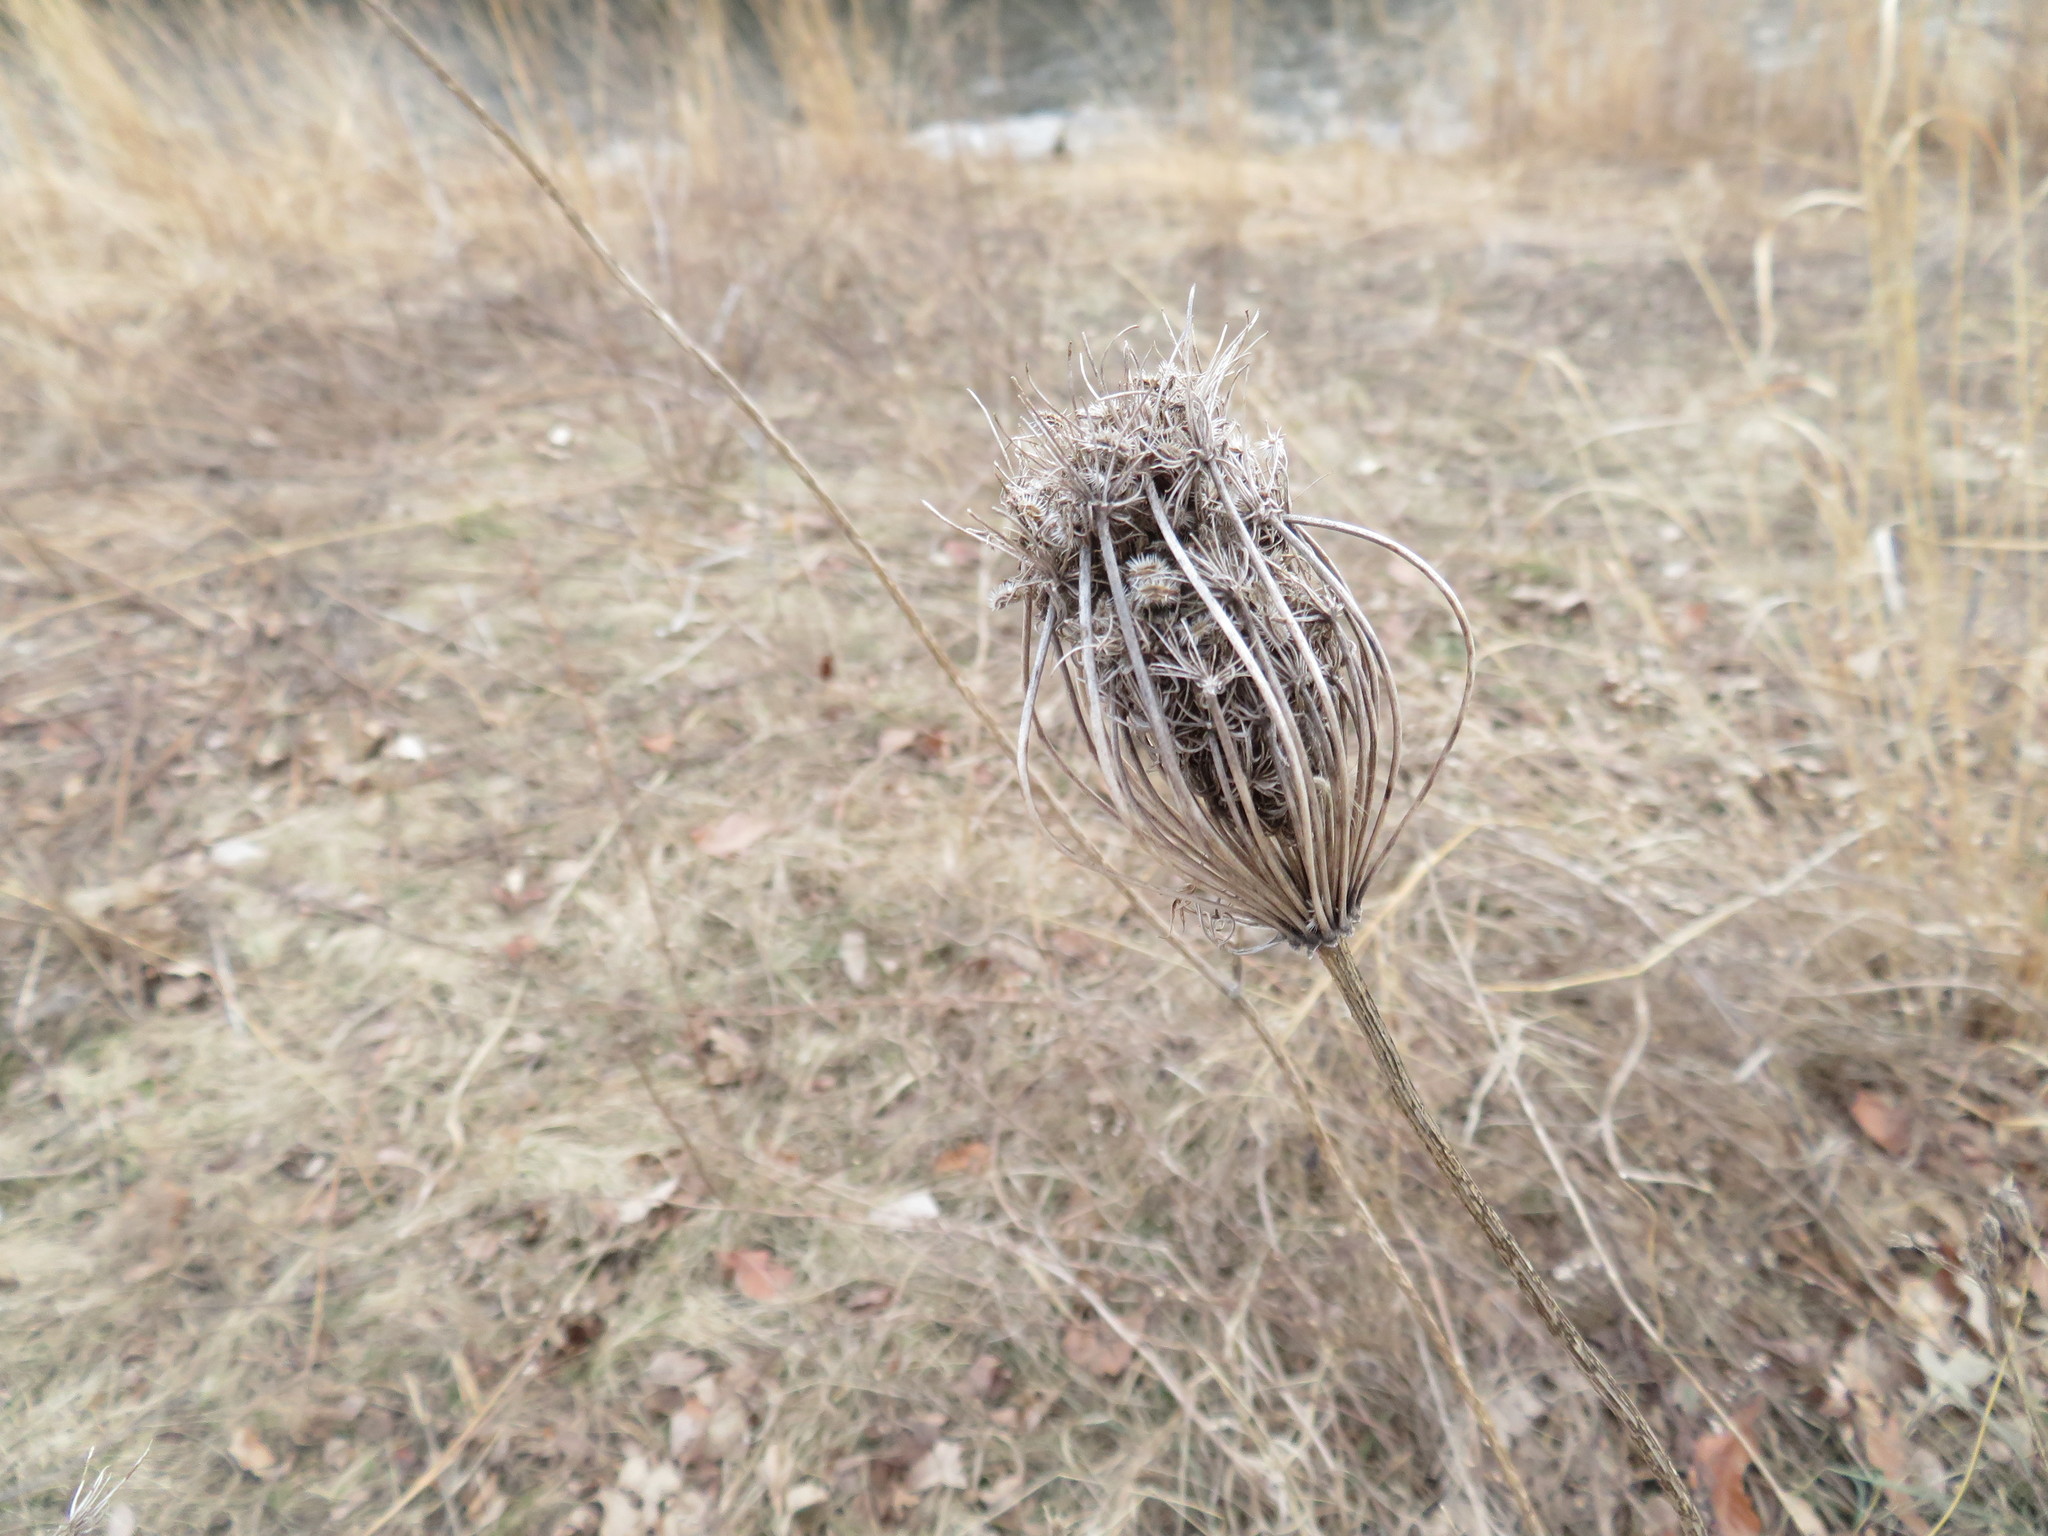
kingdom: Plantae
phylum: Tracheophyta
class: Magnoliopsida
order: Apiales
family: Apiaceae
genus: Daucus
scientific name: Daucus carota
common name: Wild carrot
